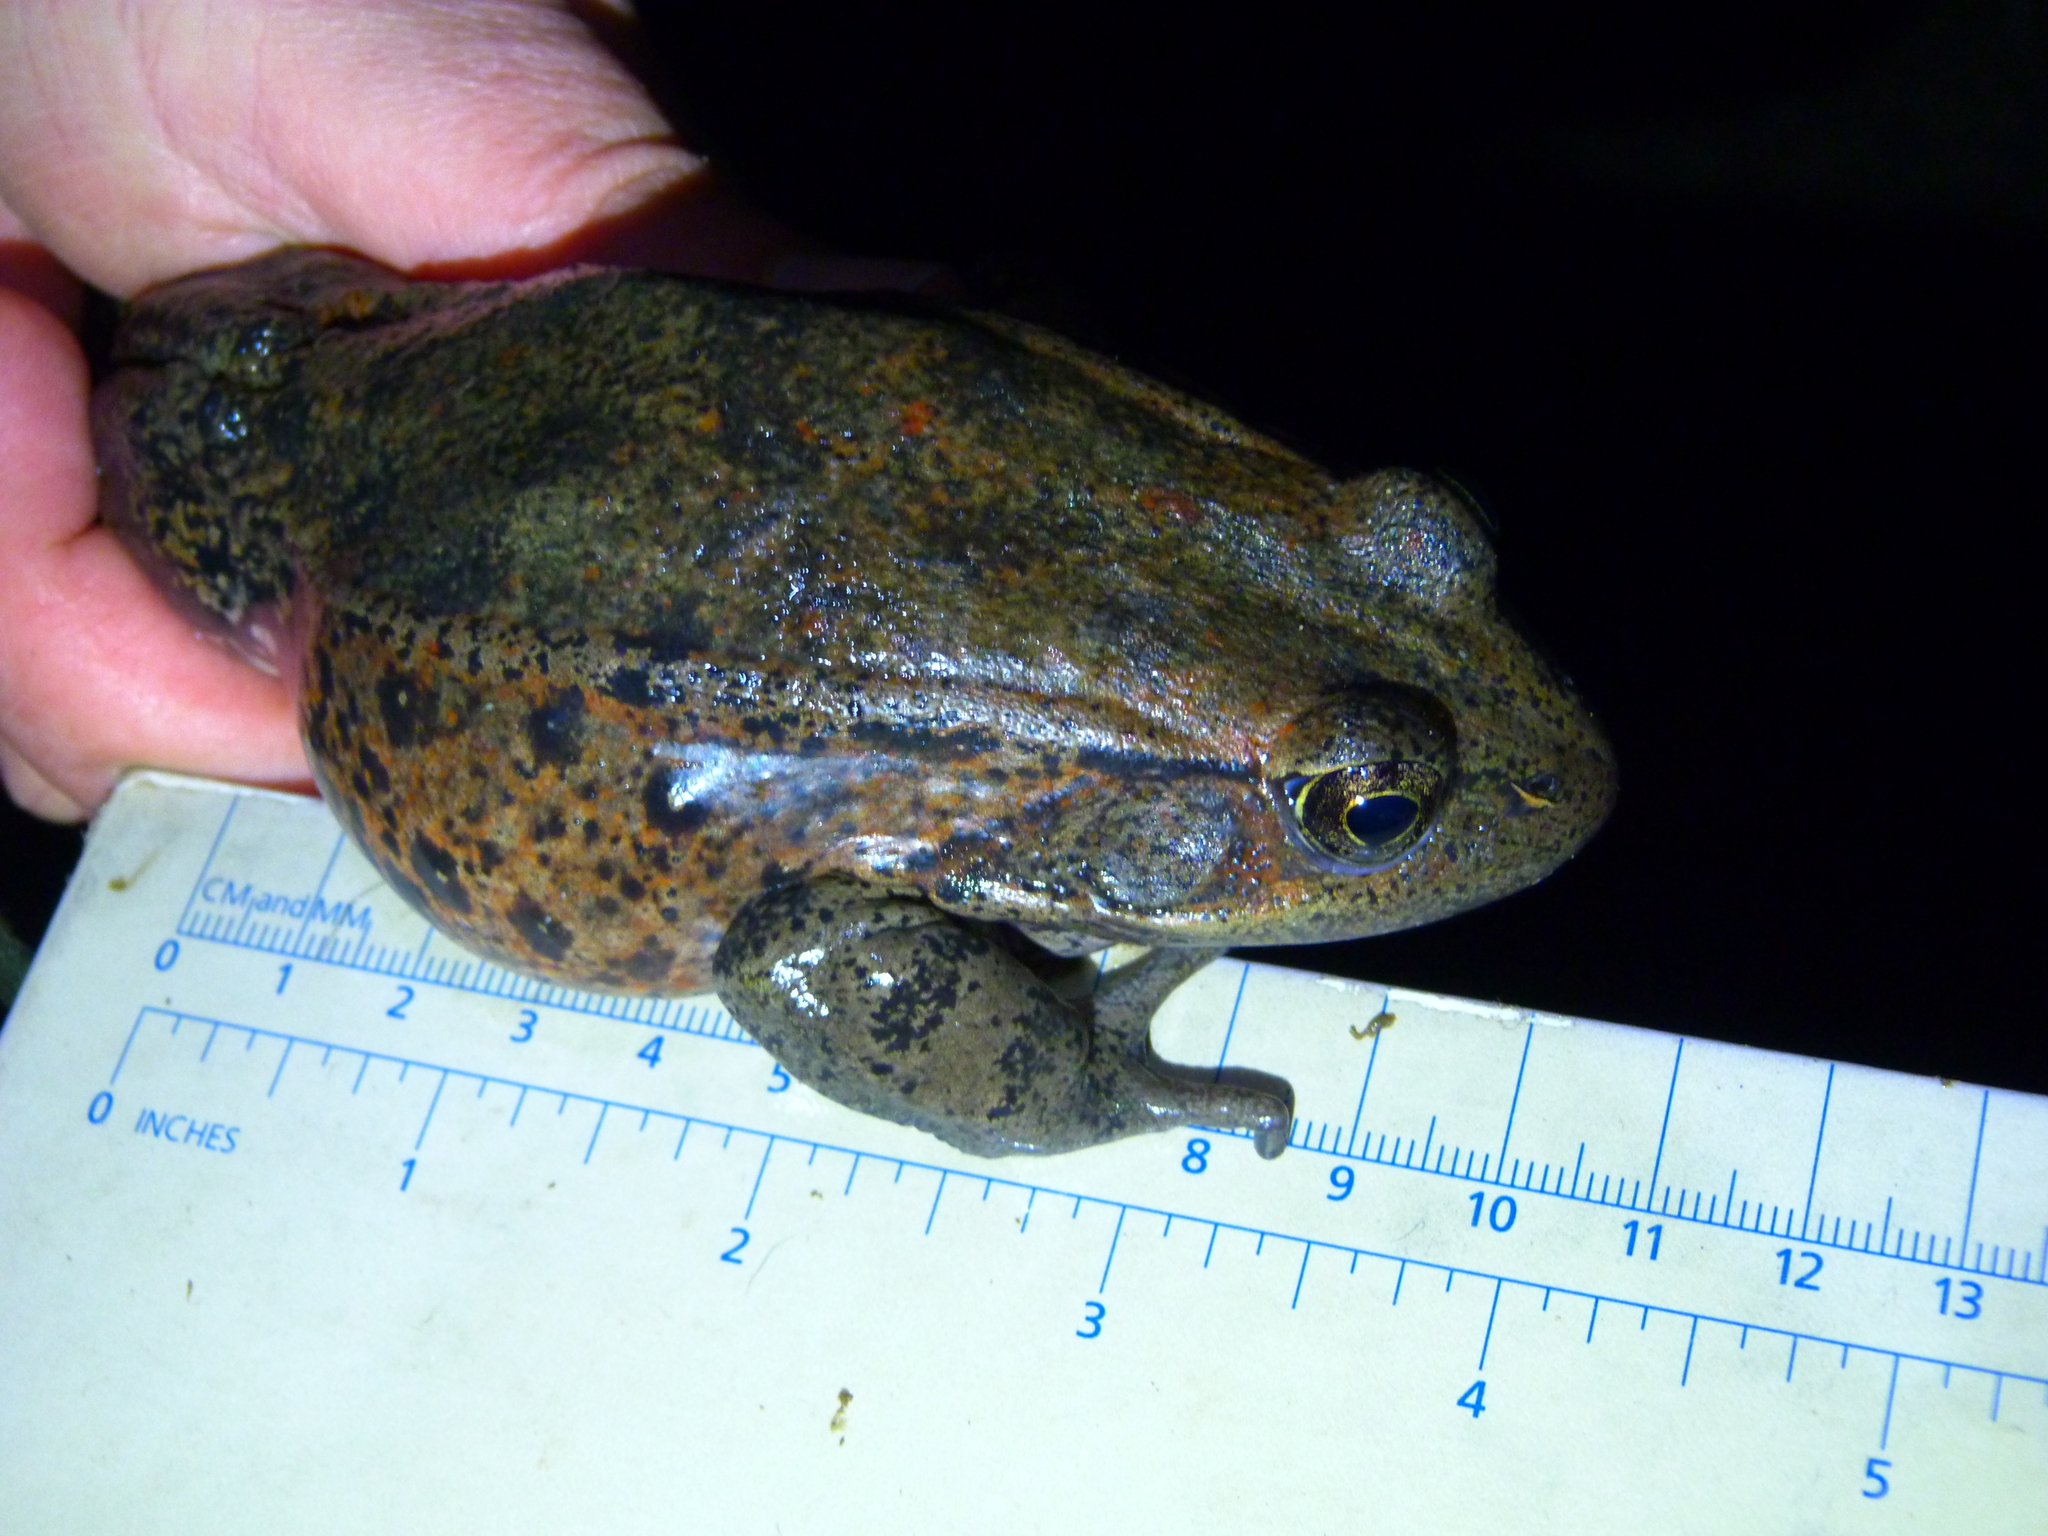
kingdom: Animalia
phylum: Chordata
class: Amphibia
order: Anura
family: Ranidae
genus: Rana
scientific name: Rana draytonii
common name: California red-legged frog
